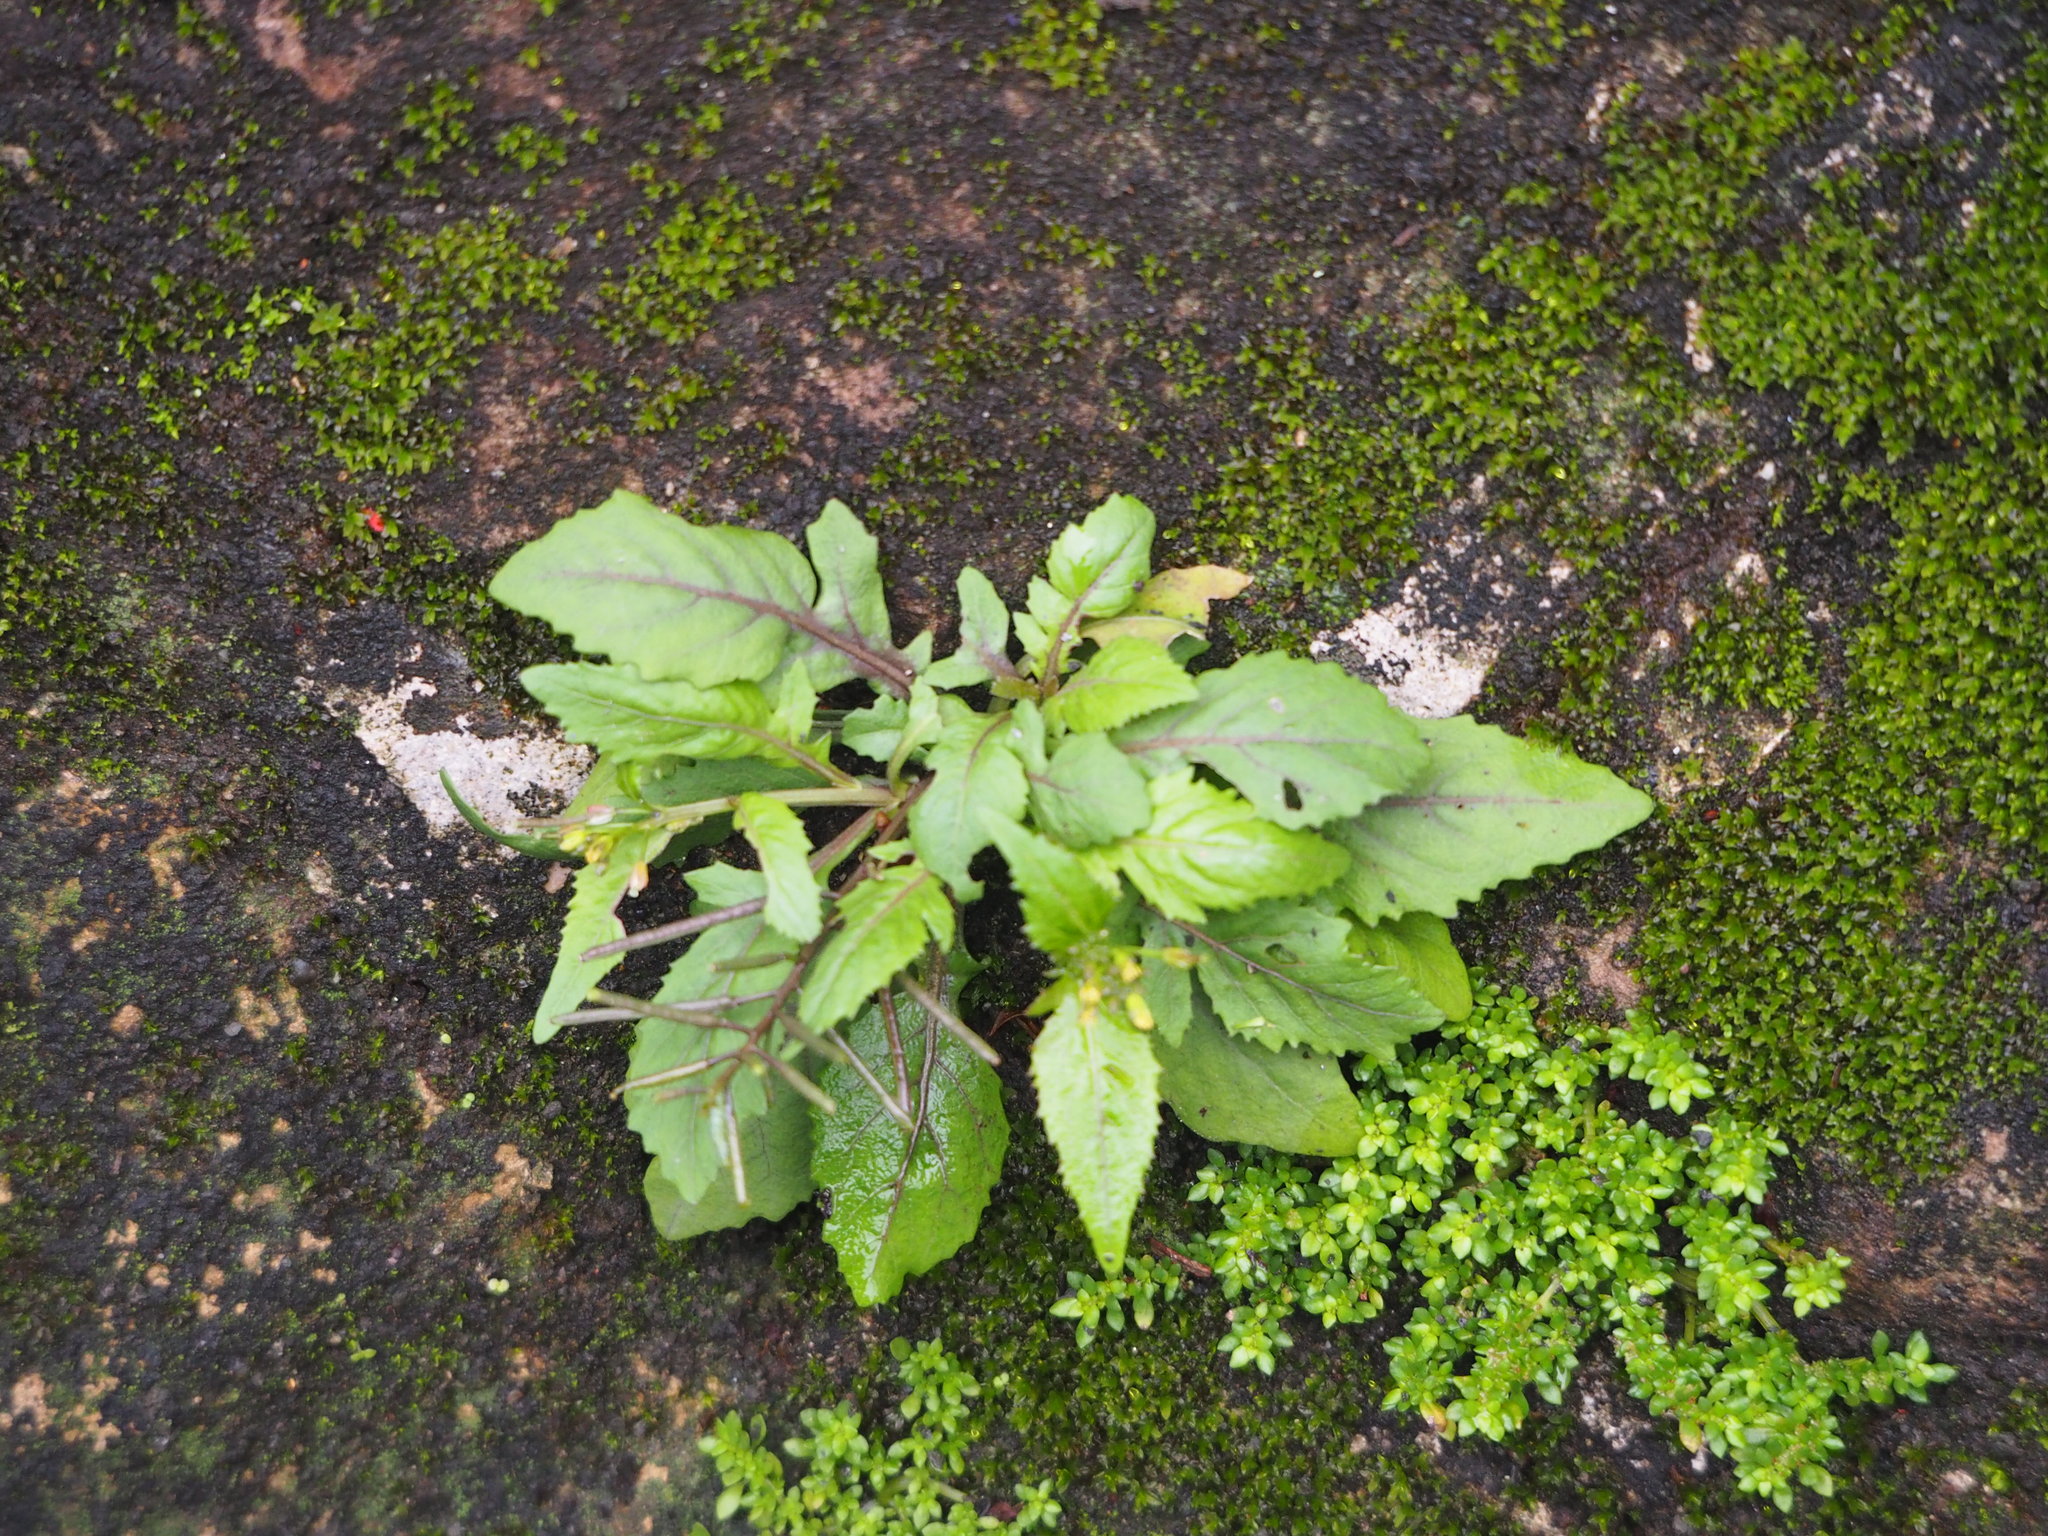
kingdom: Plantae
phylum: Tracheophyta
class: Magnoliopsida
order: Brassicales
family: Brassicaceae
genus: Rorippa
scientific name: Rorippa indica
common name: Variableleaf yellowcress
